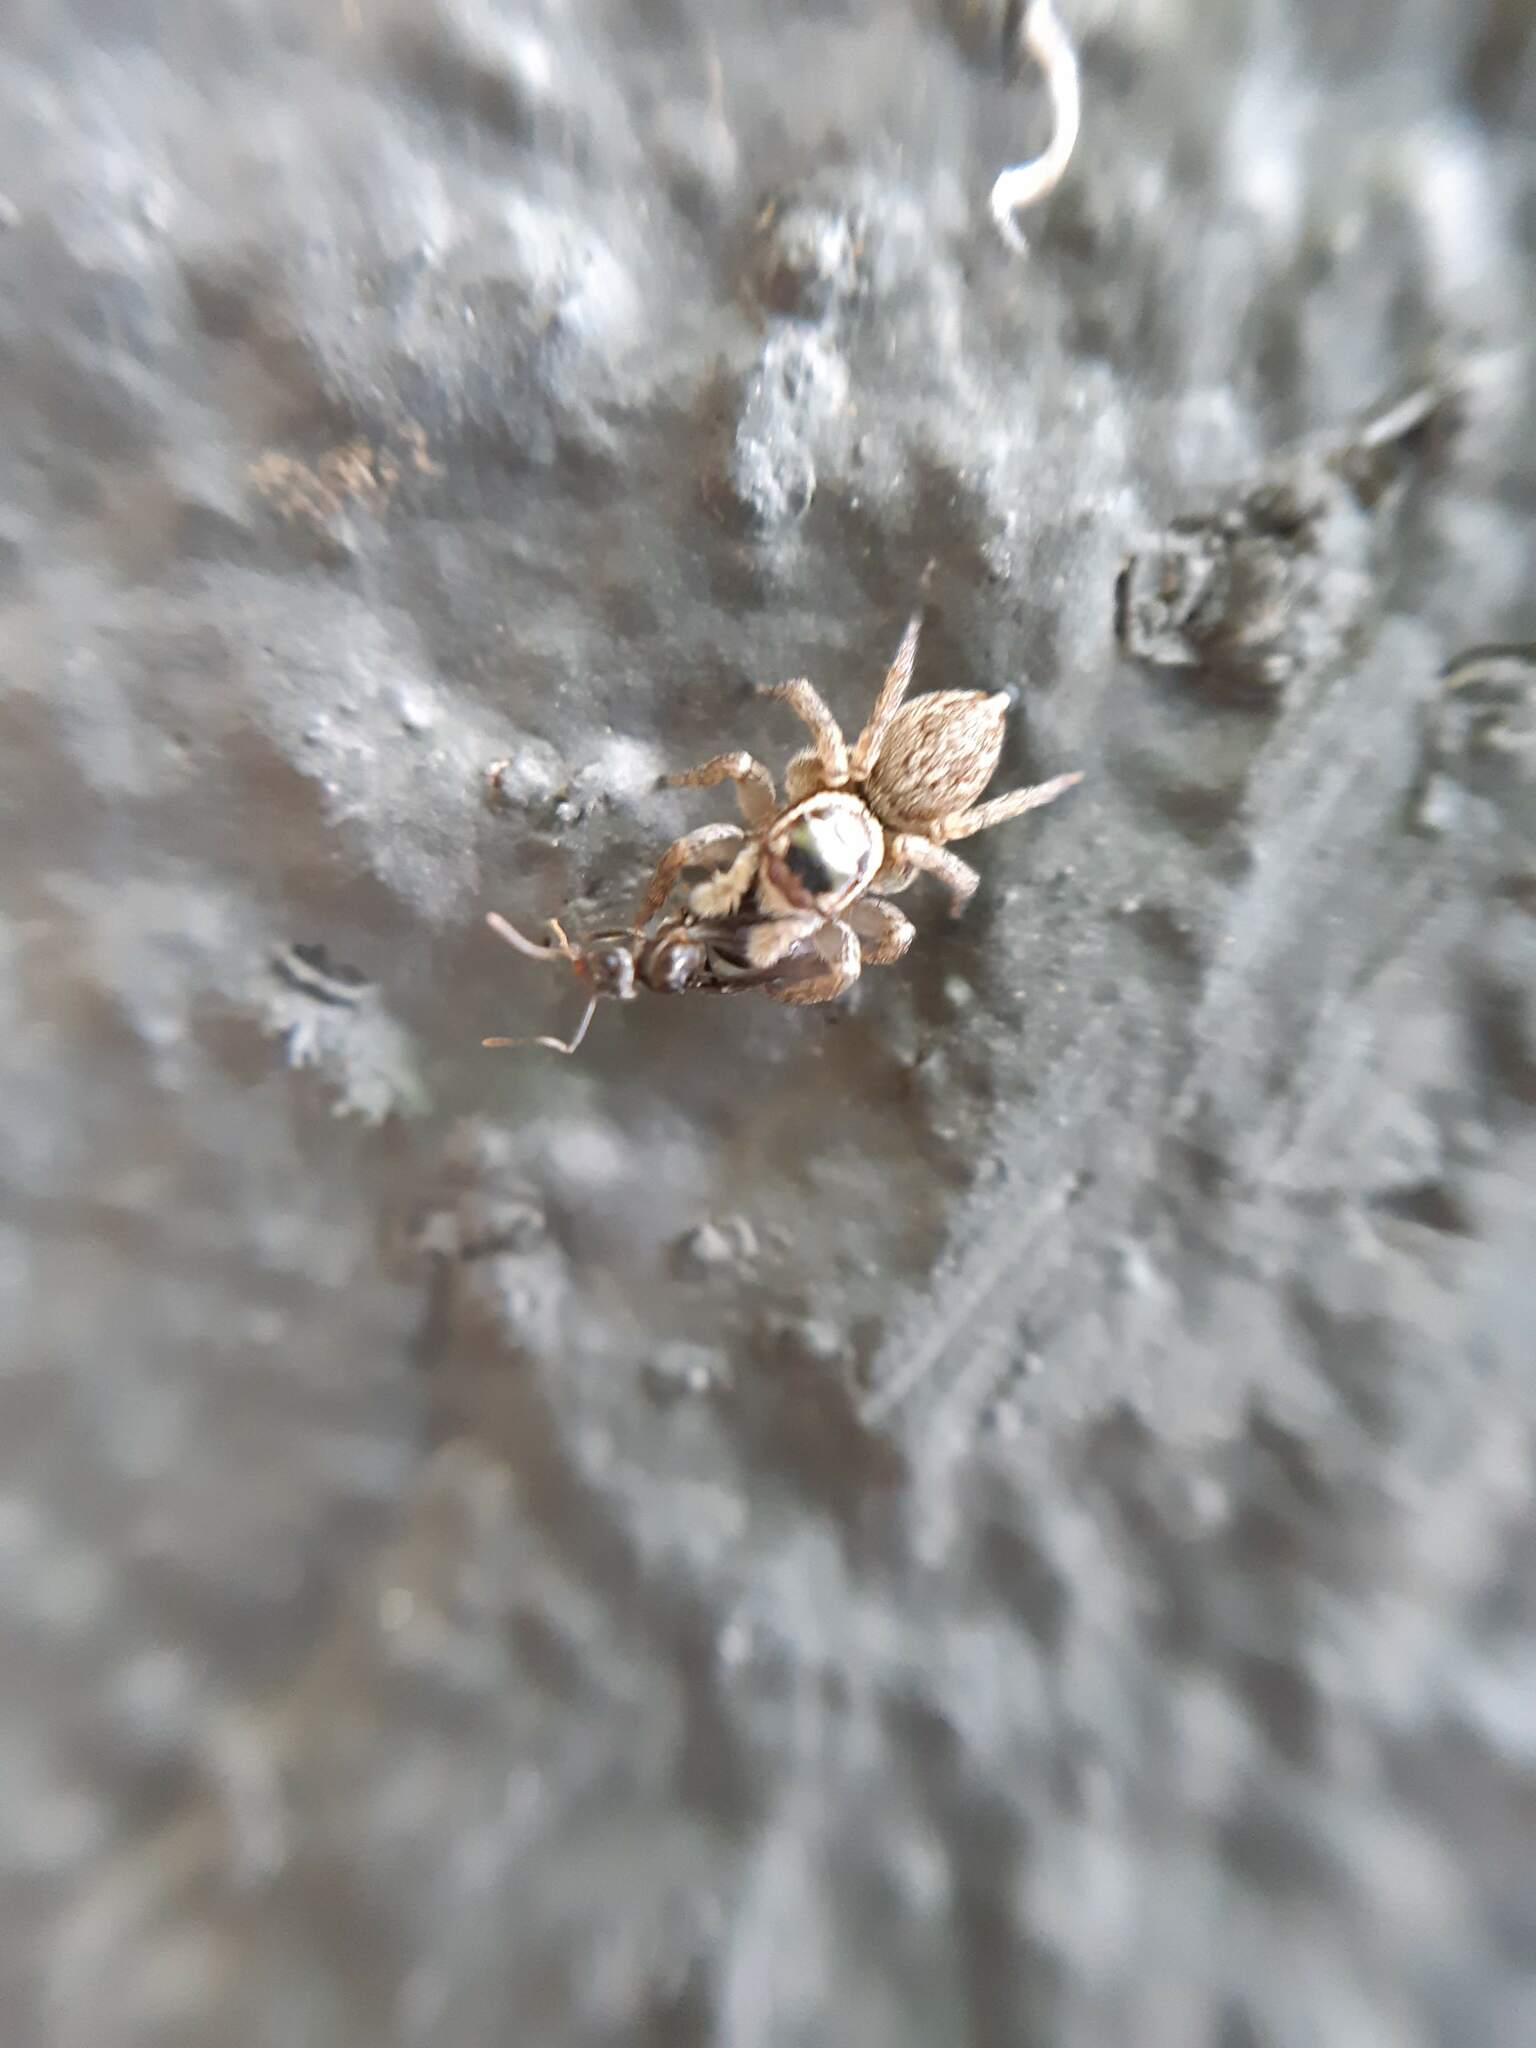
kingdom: Animalia
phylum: Arthropoda
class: Arachnida
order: Araneae
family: Salticidae
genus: Maratus
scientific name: Maratus griseus
